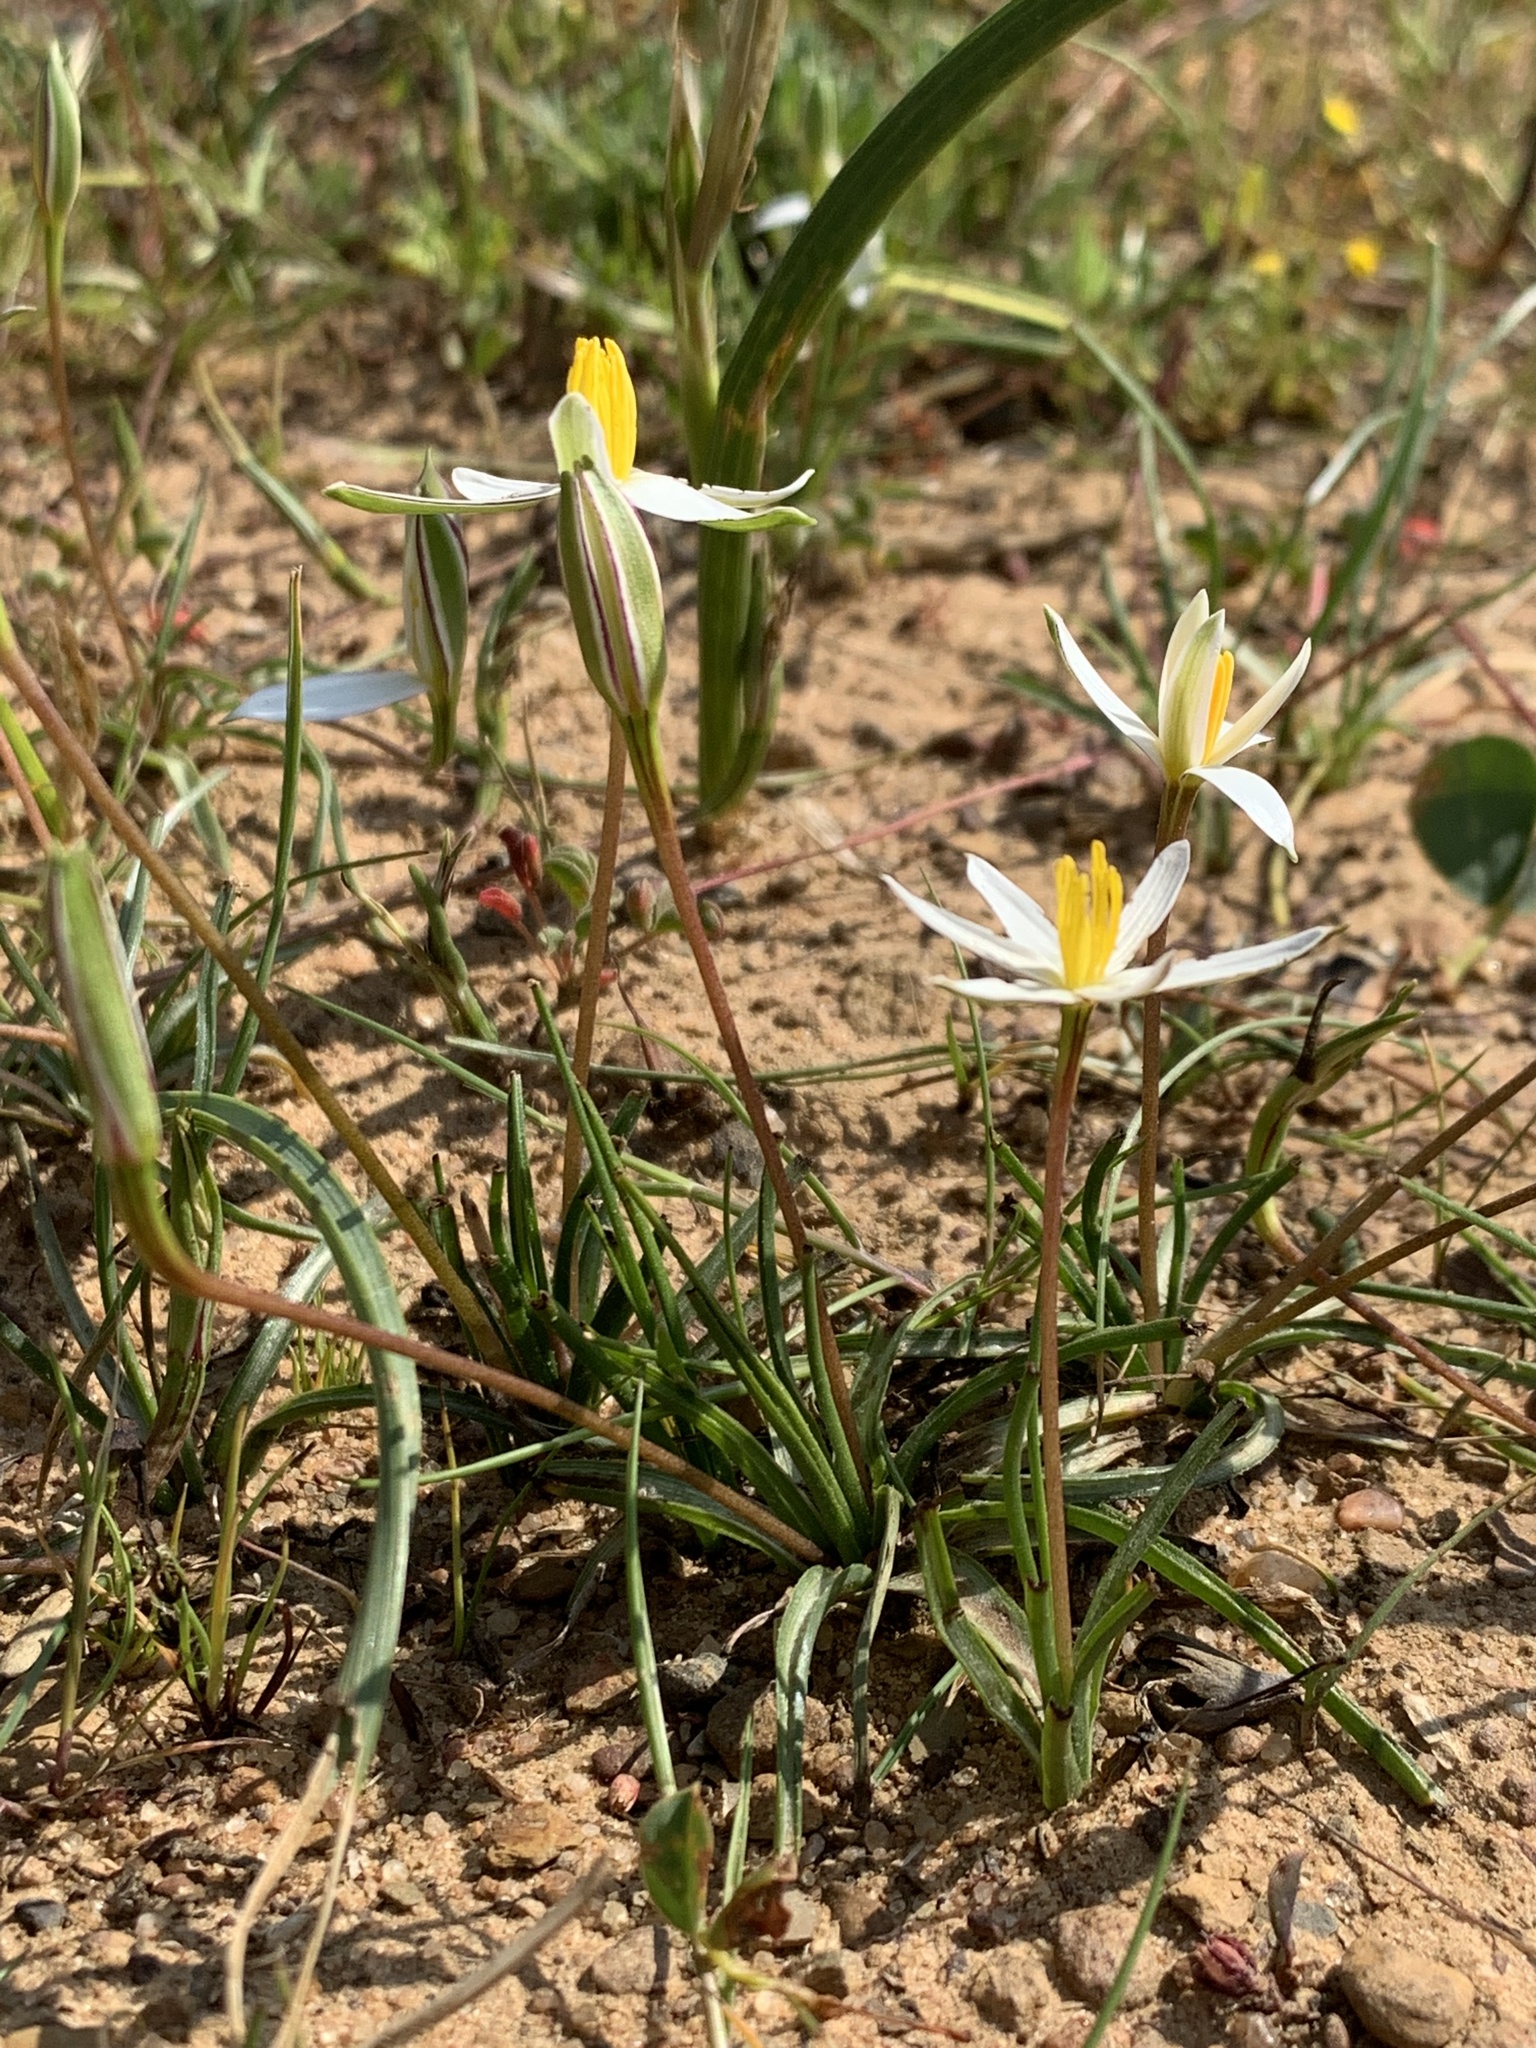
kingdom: Plantae
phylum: Tracheophyta
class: Liliopsida
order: Asparagales
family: Hypoxidaceae
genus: Pauridia
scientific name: Pauridia serrata
